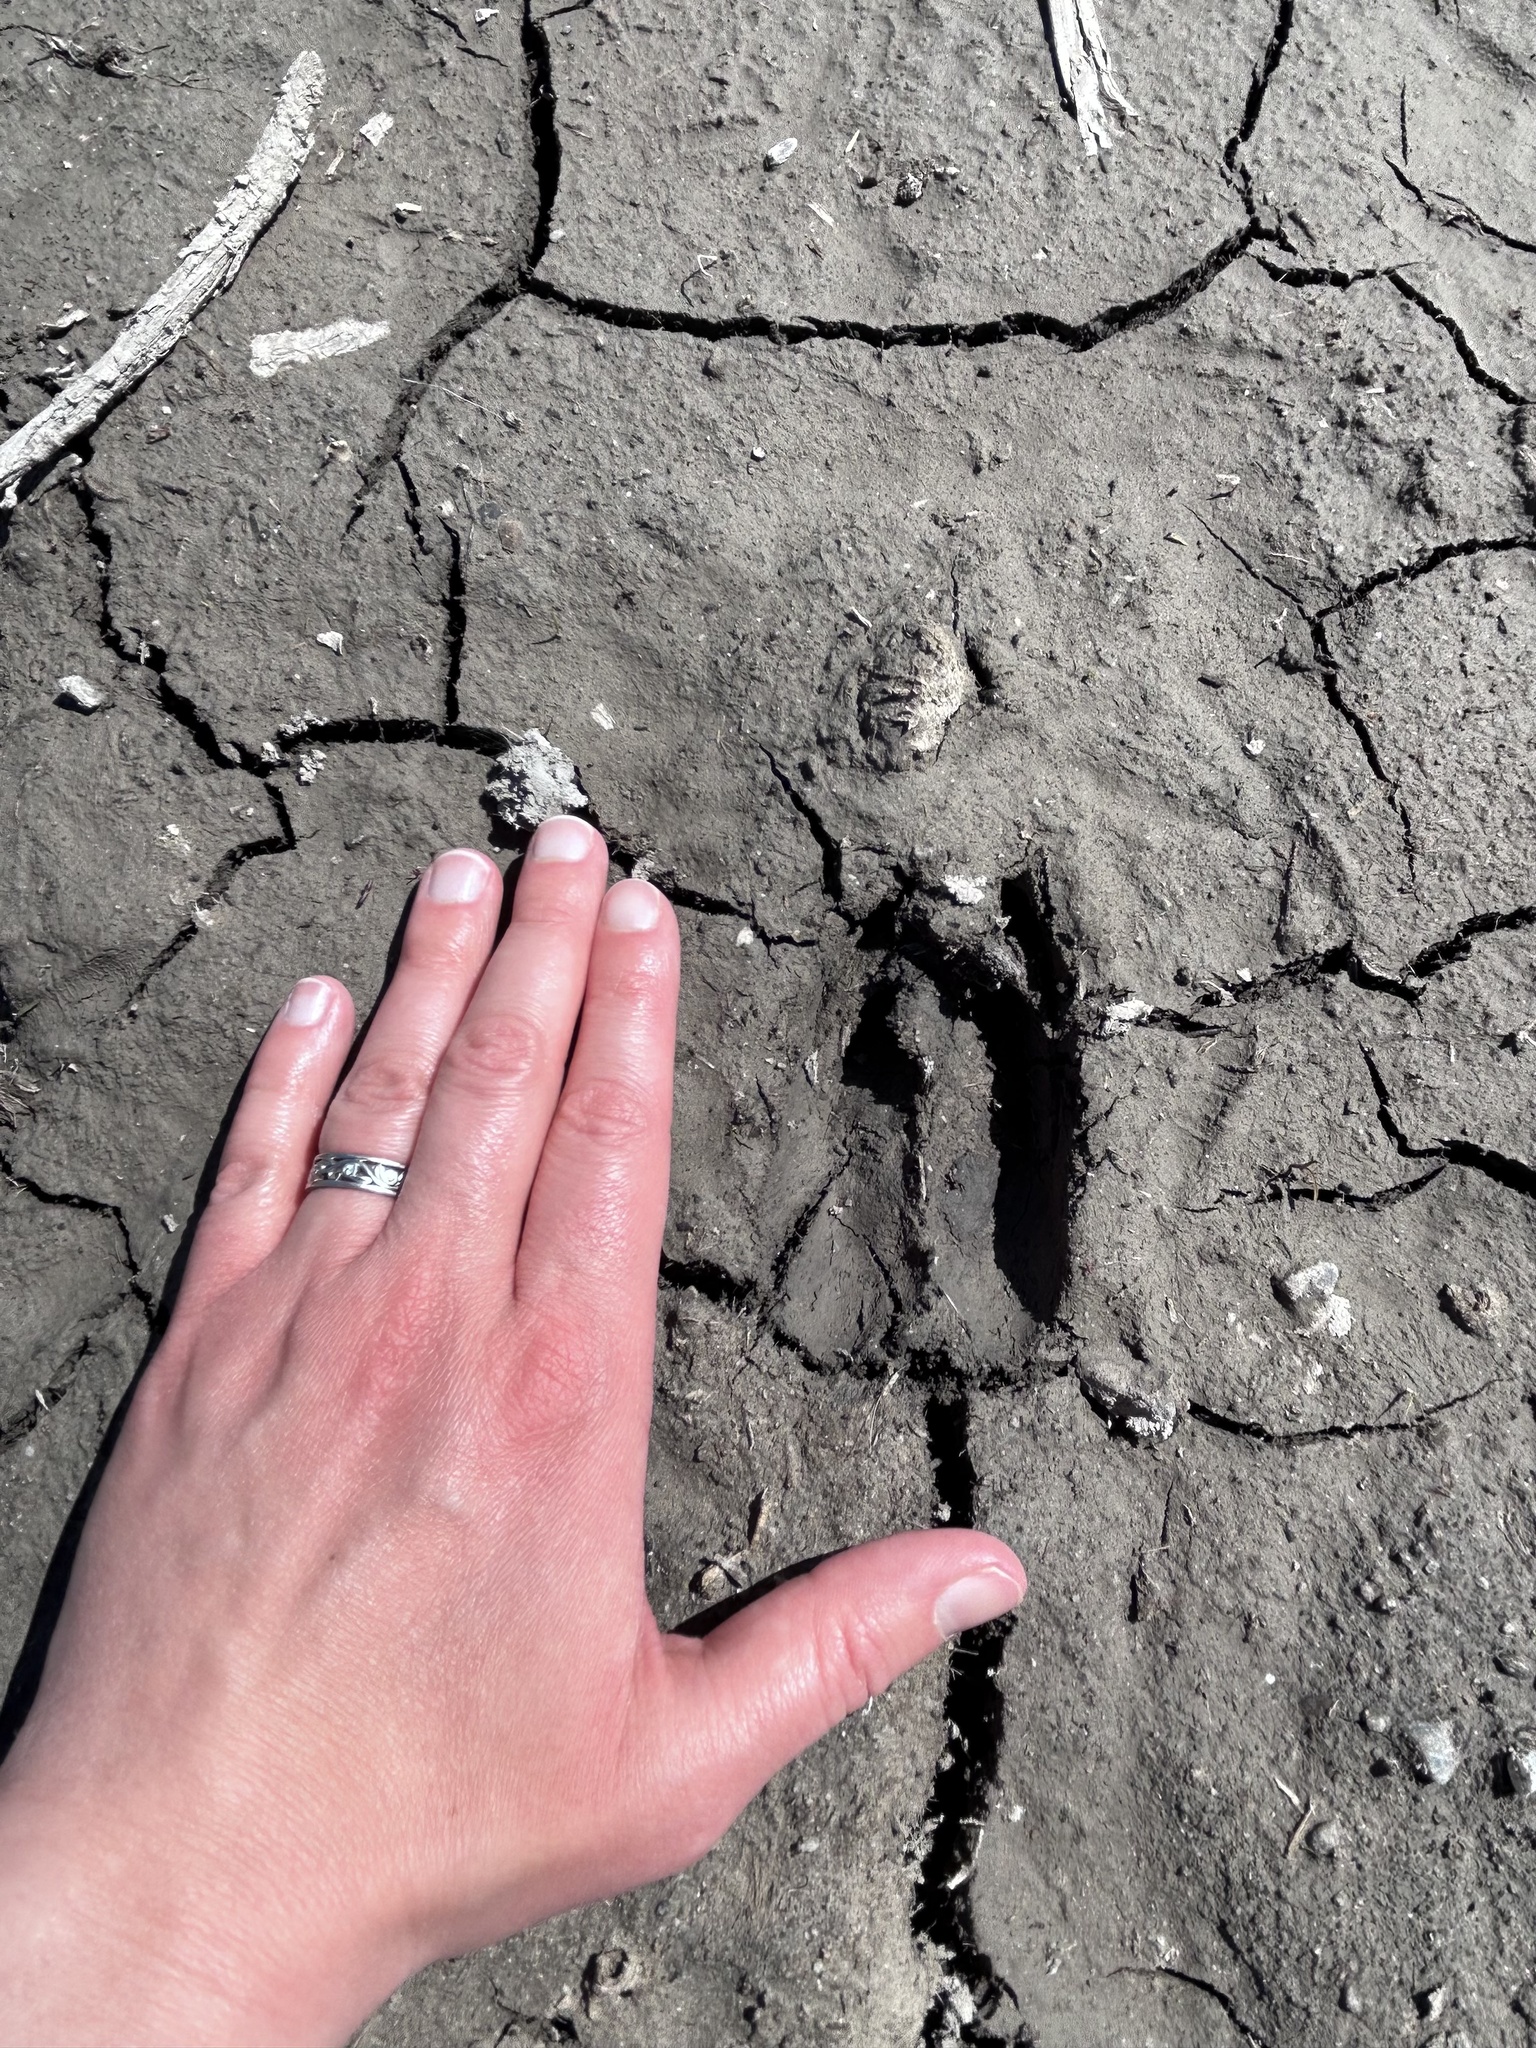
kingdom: Animalia
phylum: Chordata
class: Mammalia
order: Artiodactyla
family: Cervidae
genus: Odocoileus
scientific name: Odocoileus hemionus
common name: Mule deer
